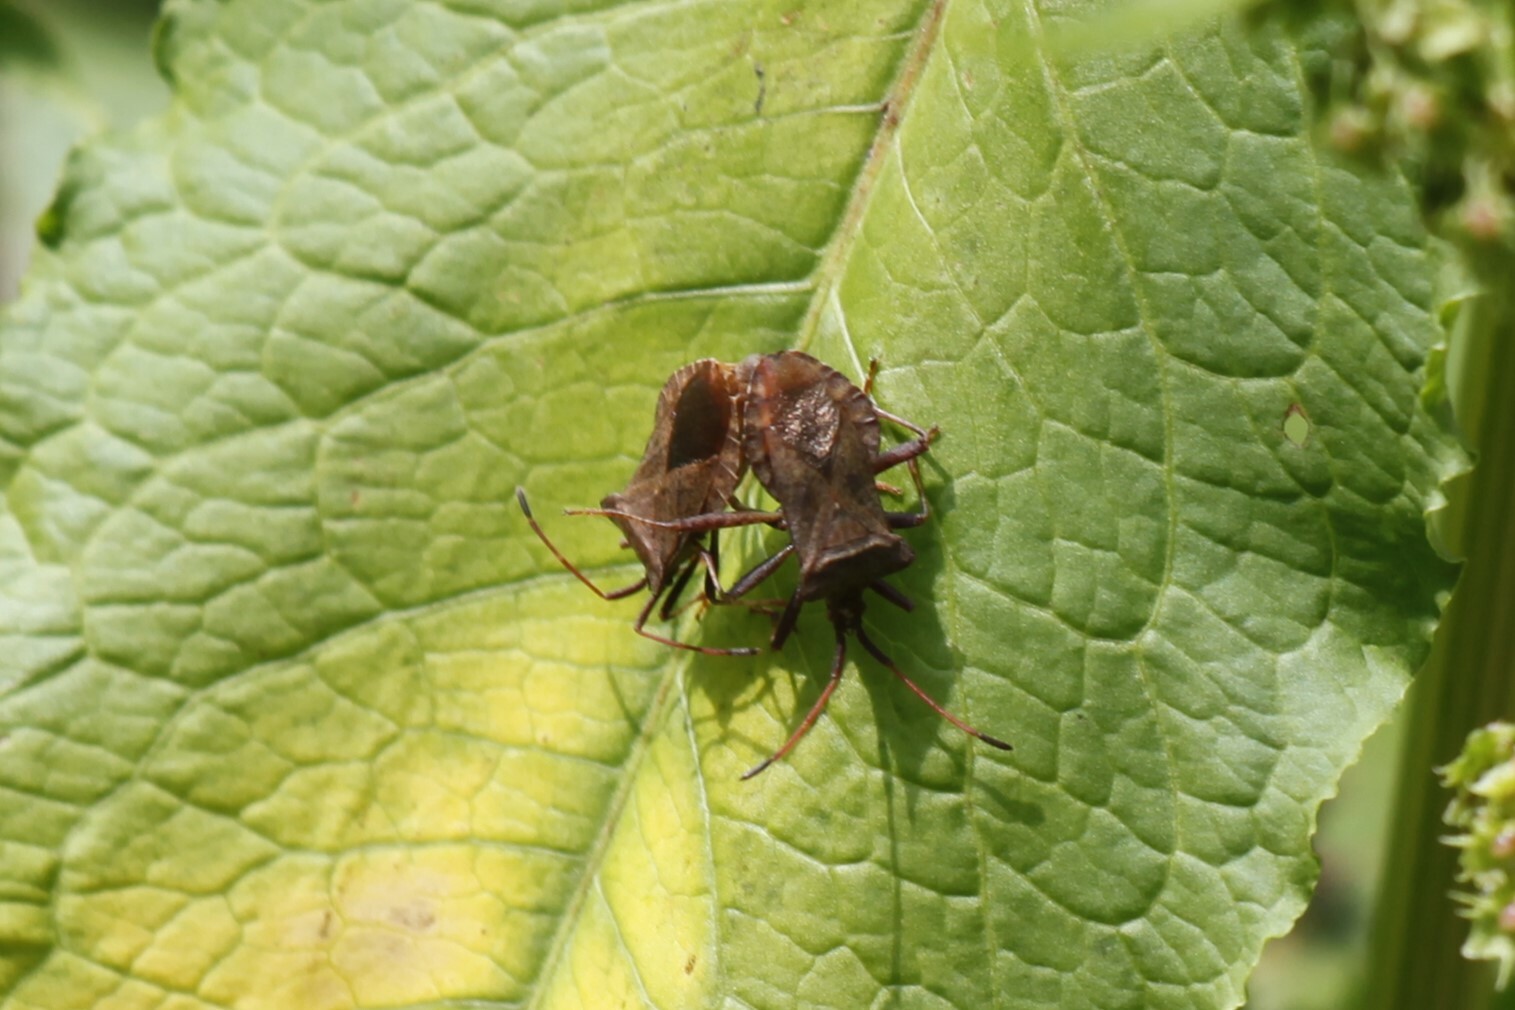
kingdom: Animalia
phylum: Arthropoda
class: Insecta
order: Hemiptera
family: Coreidae
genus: Coreus
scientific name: Coreus marginatus
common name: Dock bug
